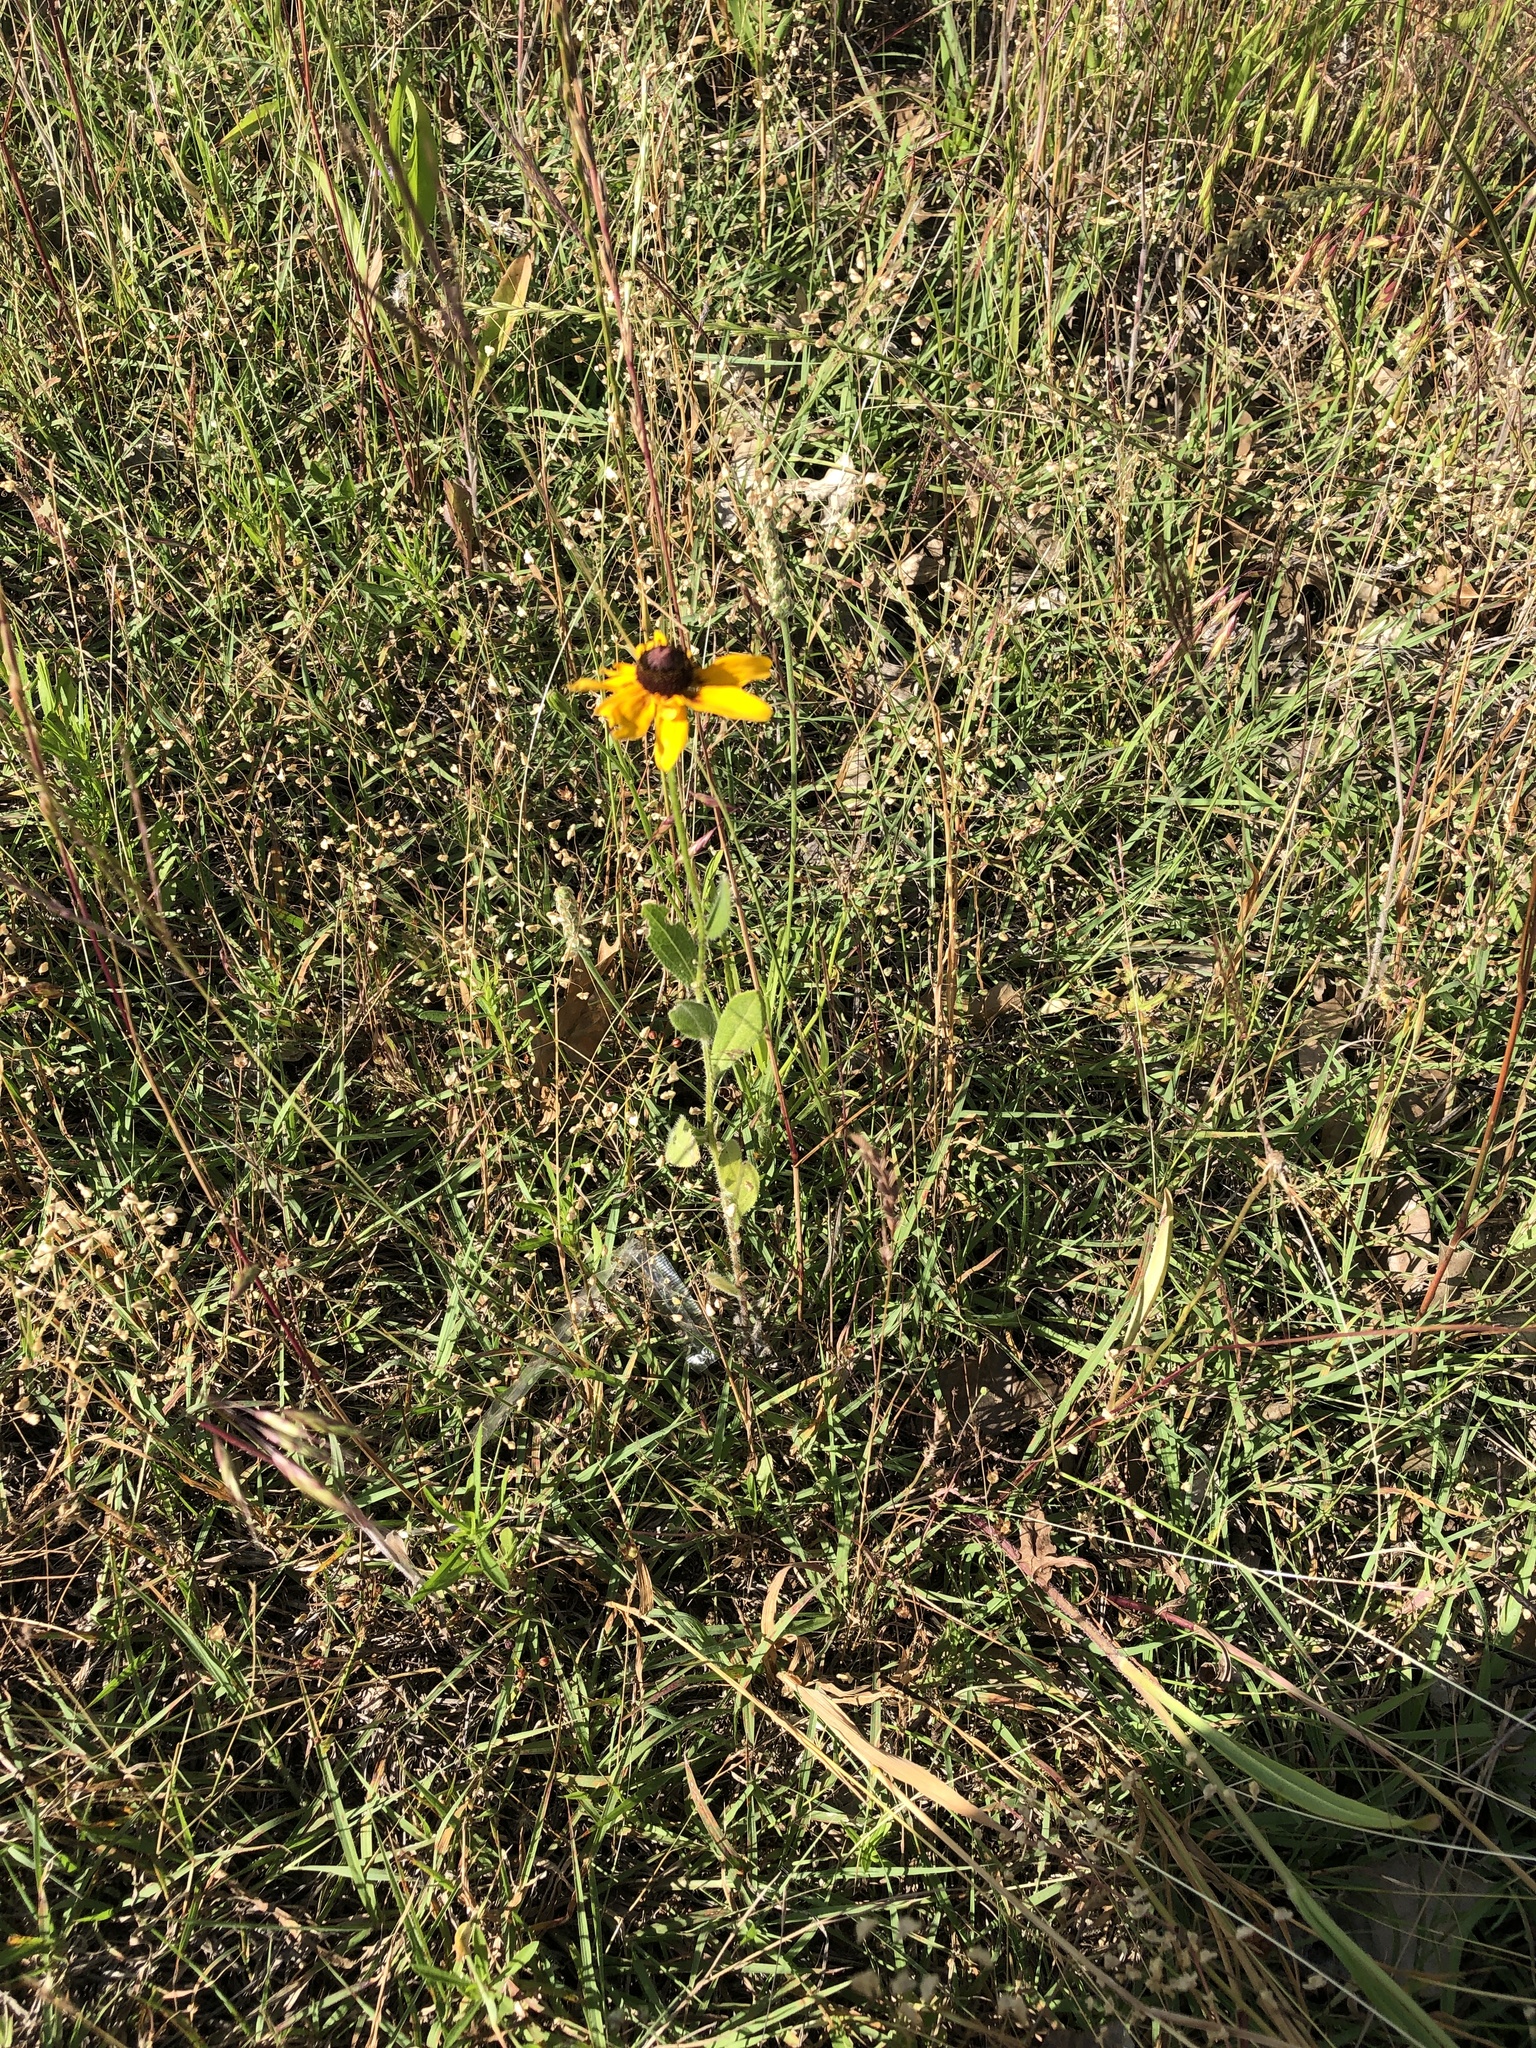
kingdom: Plantae
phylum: Tracheophyta
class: Magnoliopsida
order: Asterales
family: Asteraceae
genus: Rudbeckia
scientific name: Rudbeckia hirta
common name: Black-eyed-susan
